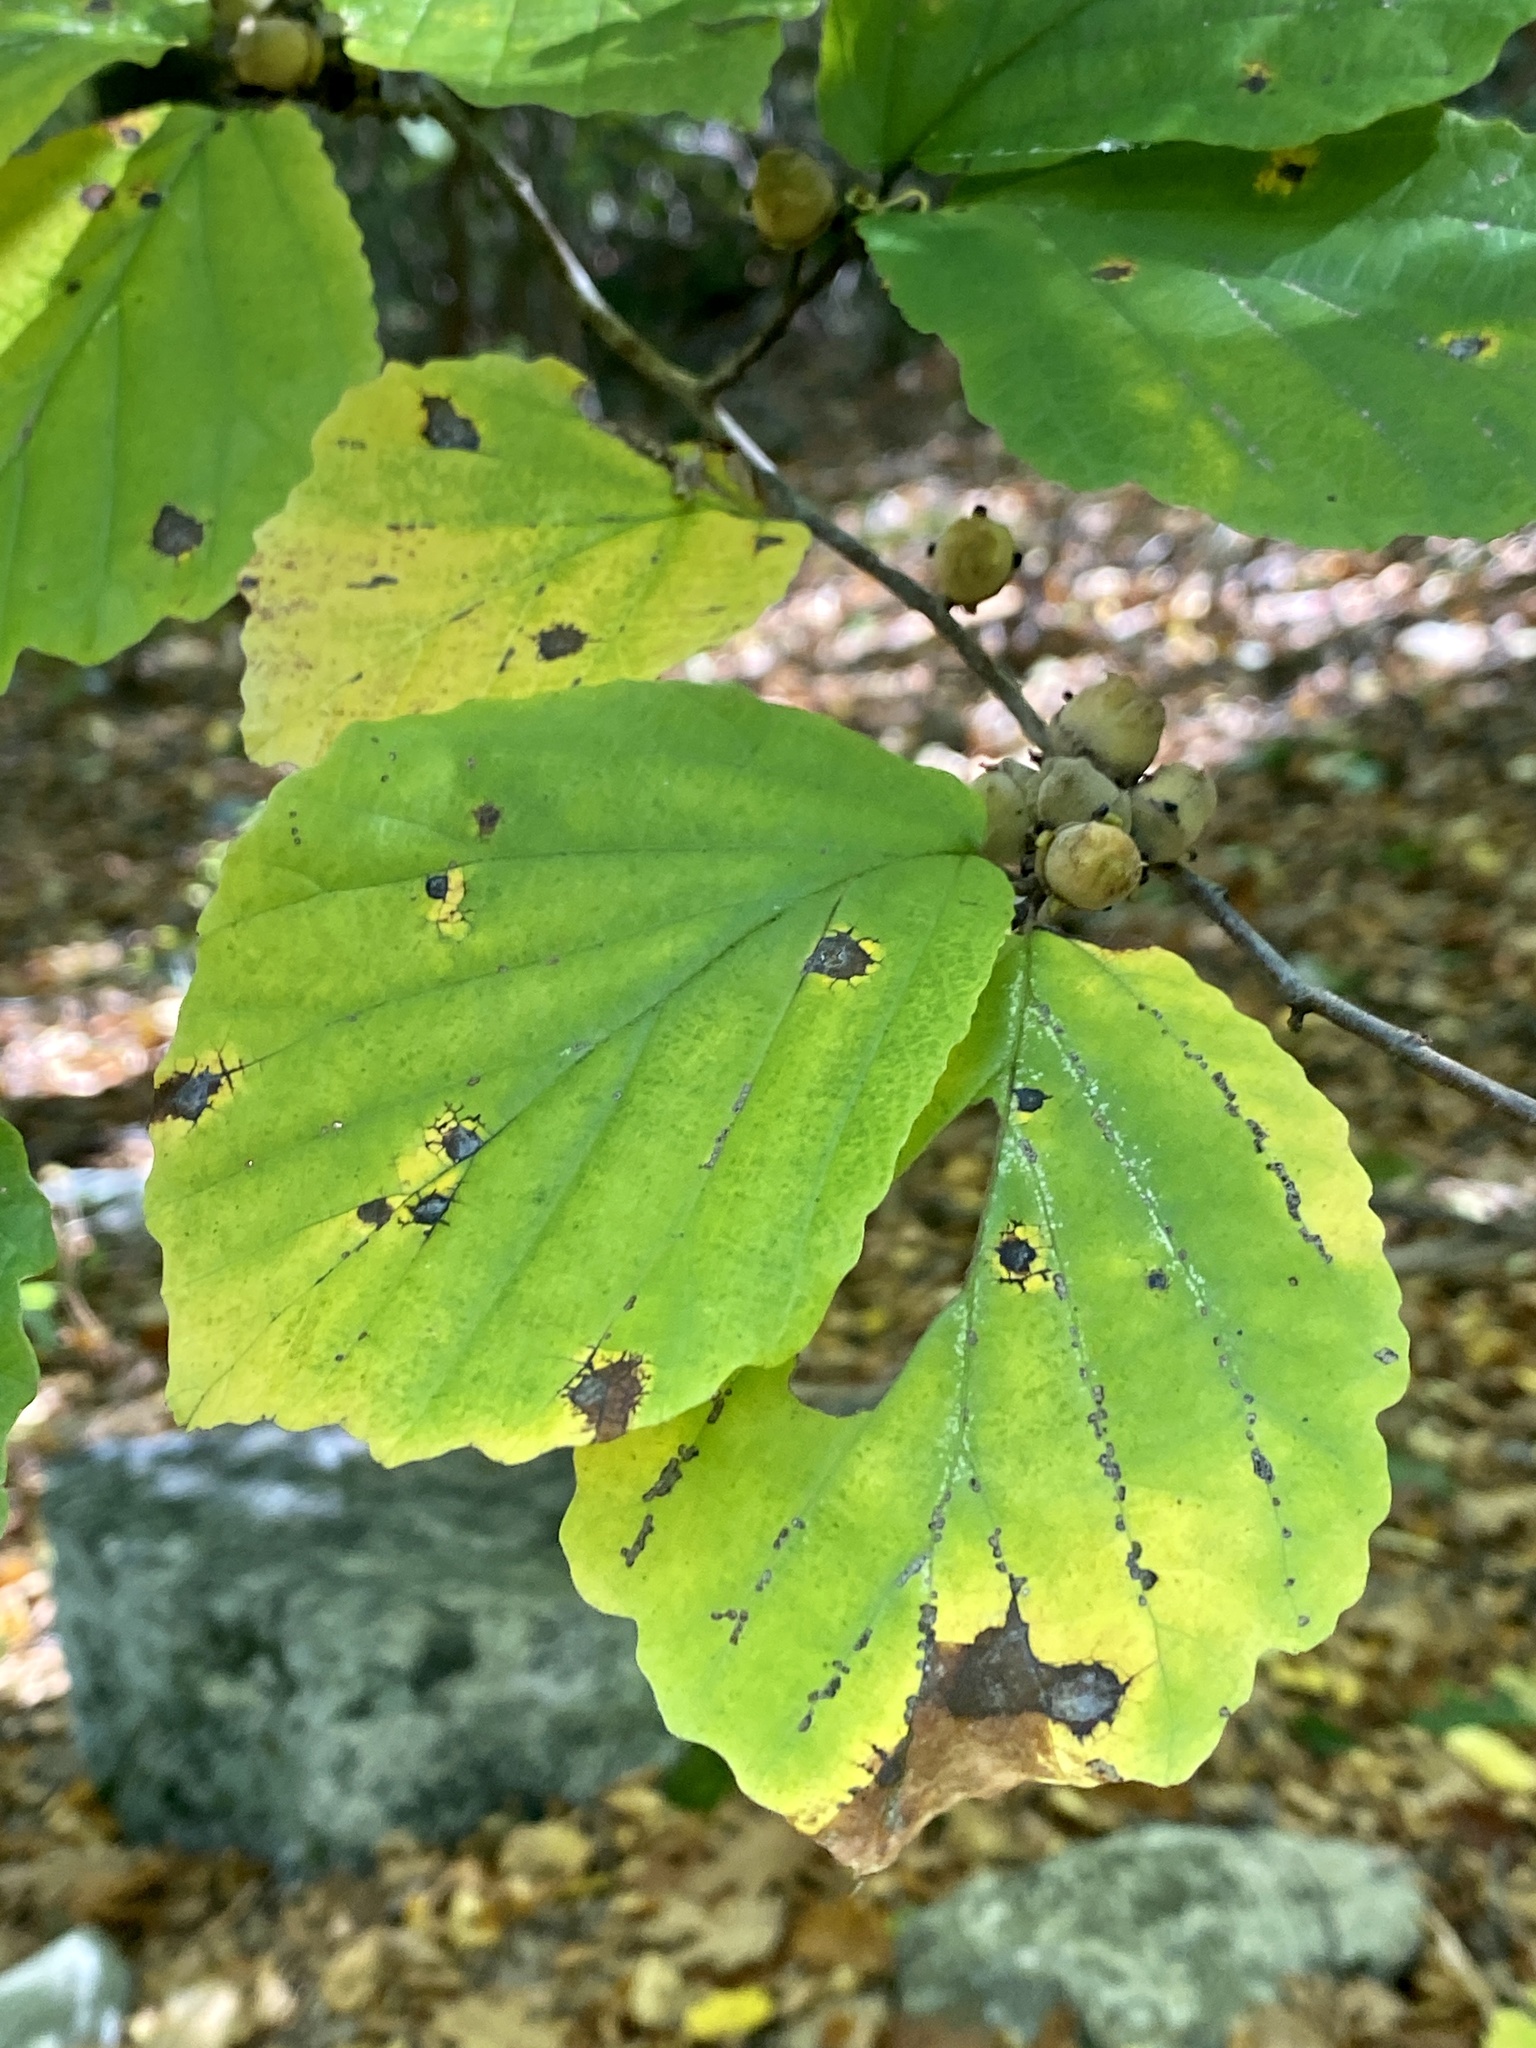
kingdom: Plantae
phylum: Tracheophyta
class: Magnoliopsida
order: Saxifragales
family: Hamamelidaceae
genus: Hamamelis
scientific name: Hamamelis virginiana
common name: Witch-hazel
